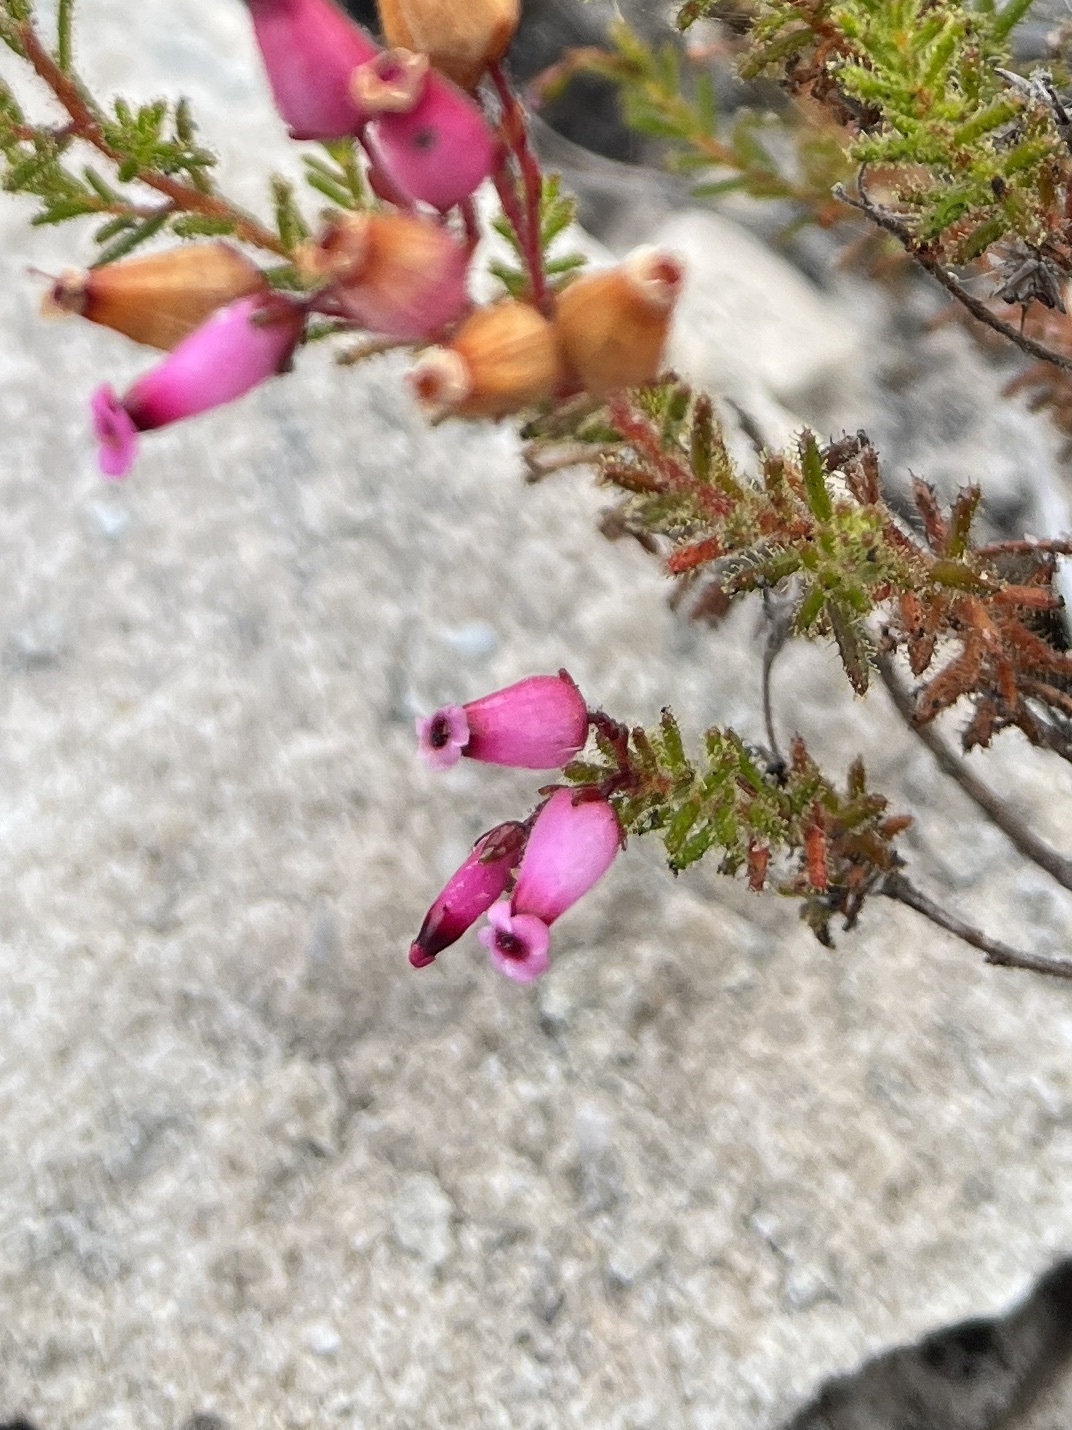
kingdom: Plantae
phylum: Tracheophyta
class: Magnoliopsida
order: Ericales
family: Ericaceae
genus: Erica
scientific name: Erica glutinosa
